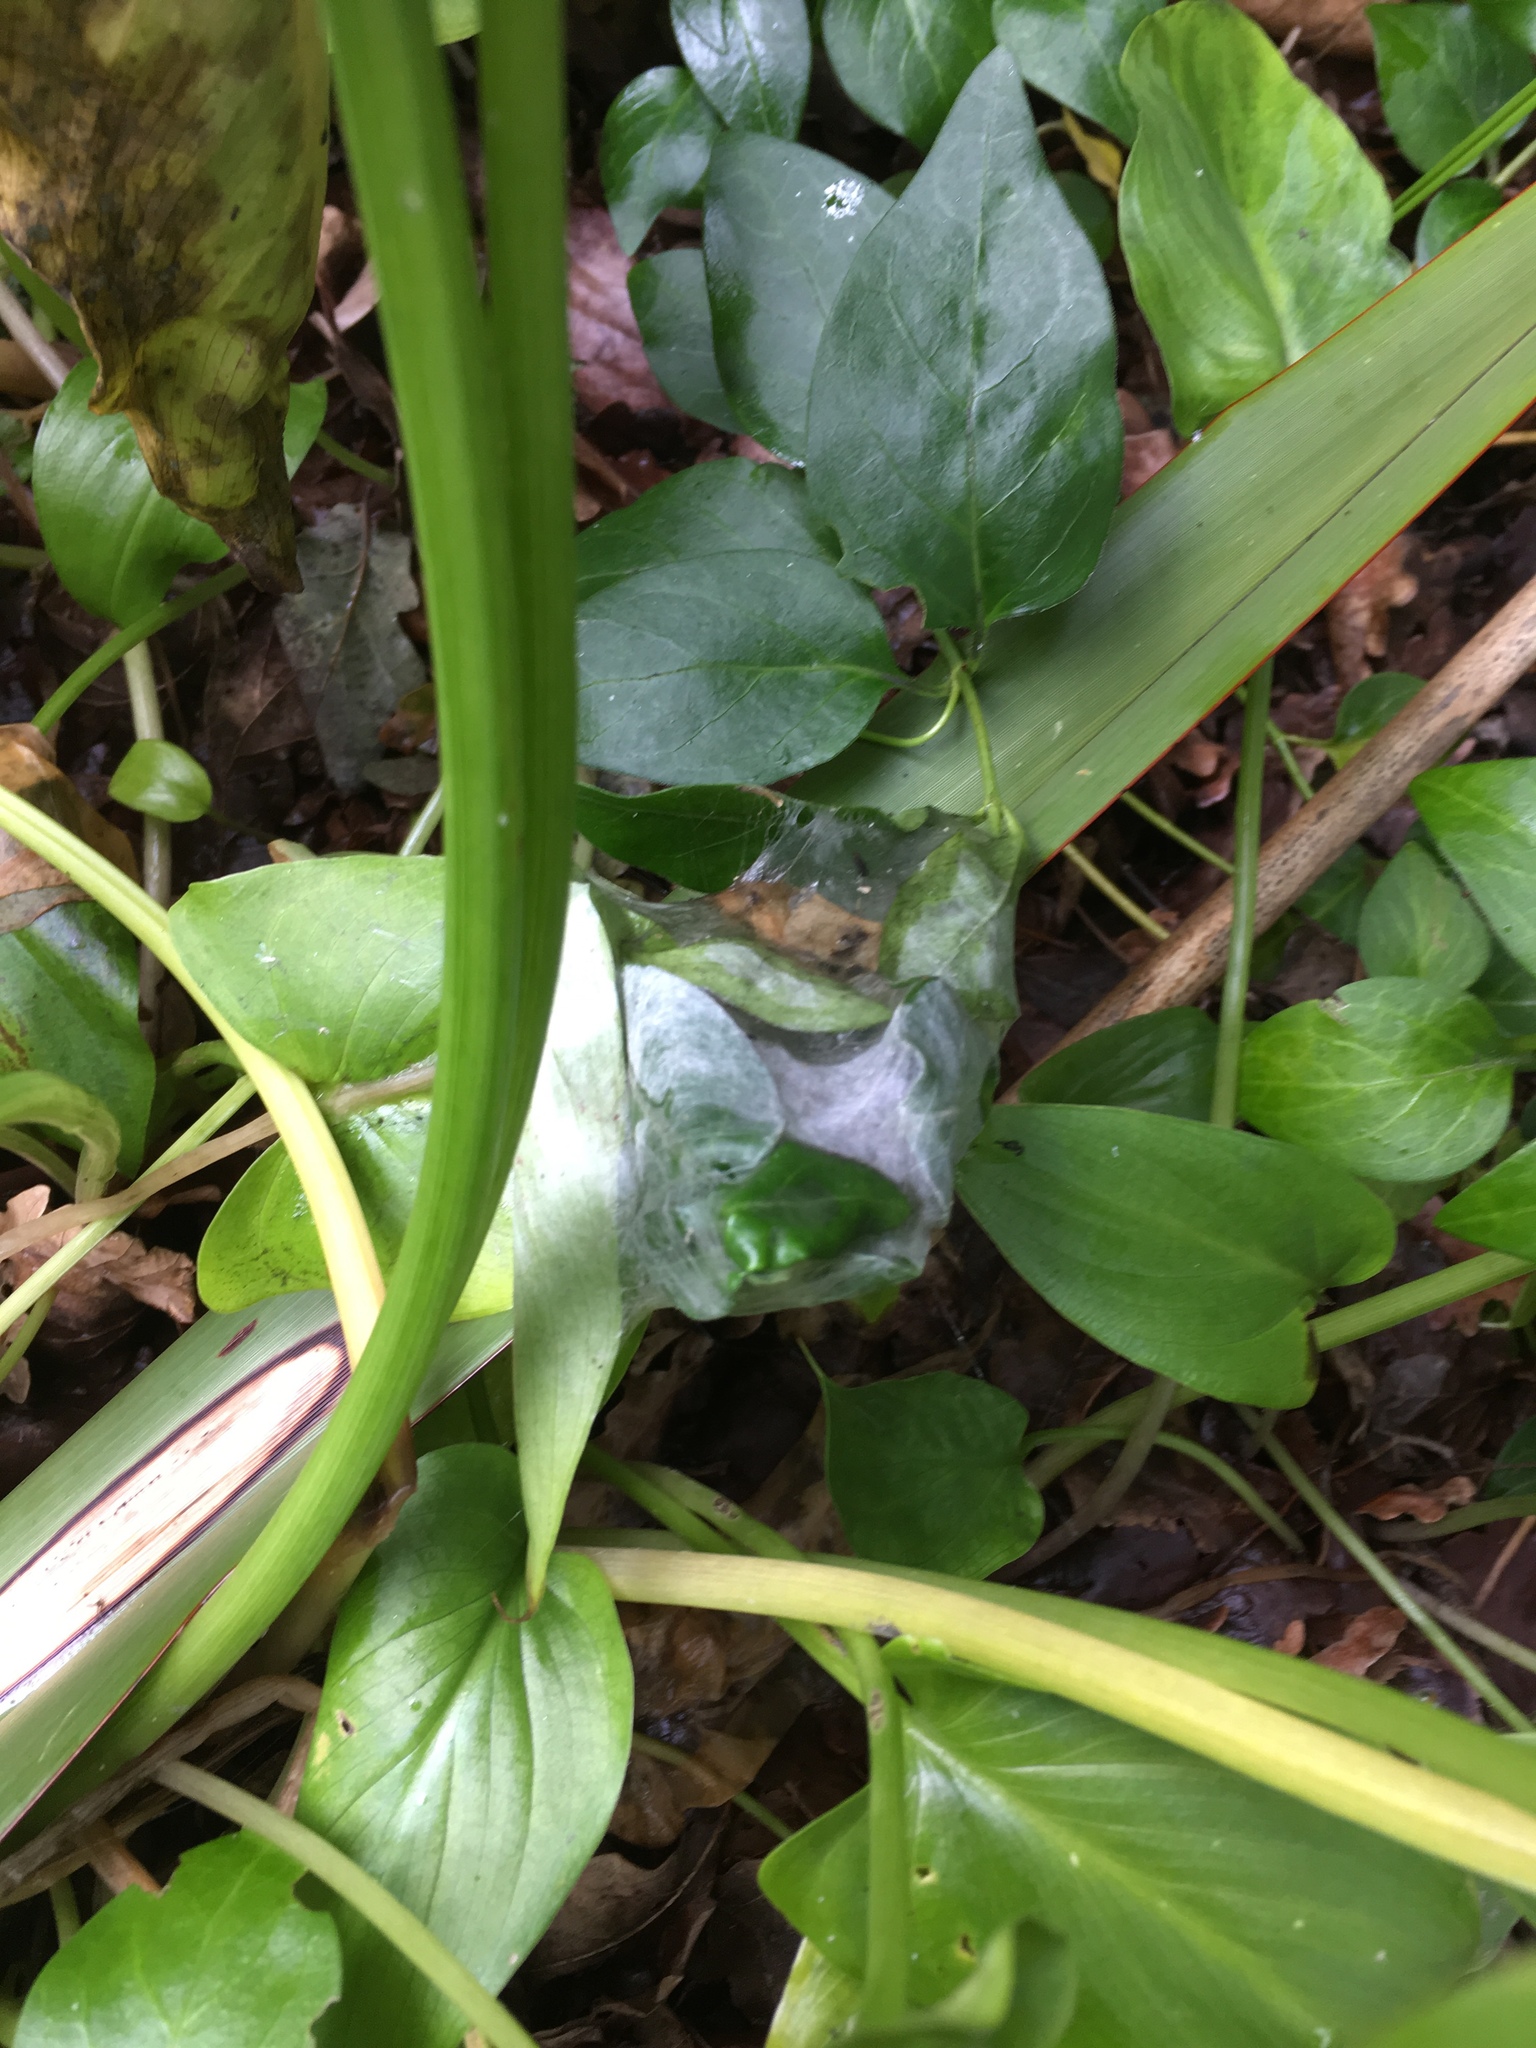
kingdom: Animalia
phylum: Arthropoda
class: Arachnida
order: Araneae
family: Pisauridae
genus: Dolomedes
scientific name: Dolomedes minor
